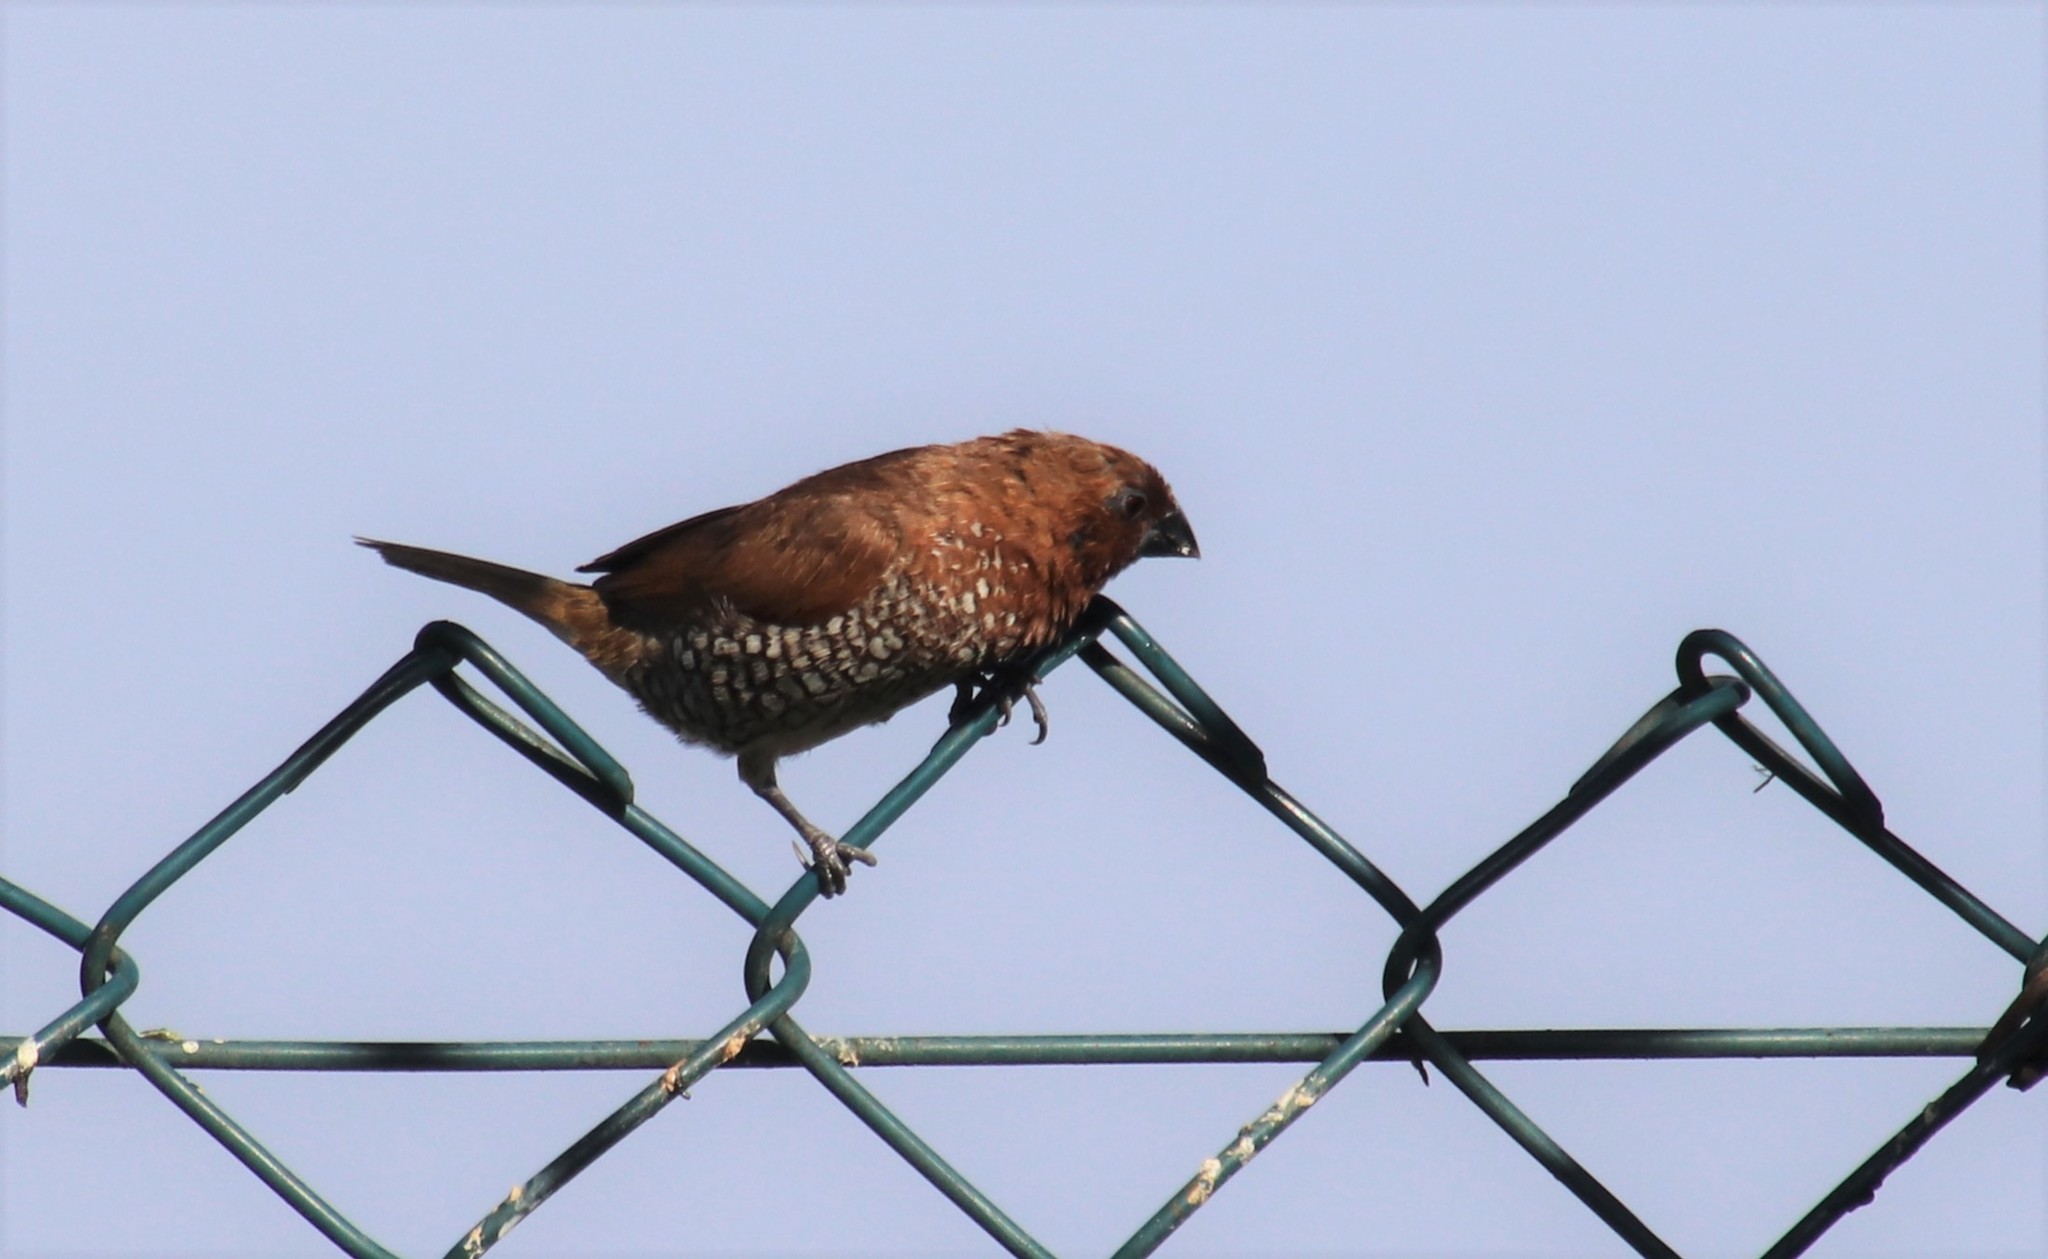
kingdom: Animalia
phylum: Chordata
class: Aves
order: Passeriformes
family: Estrildidae
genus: Lonchura
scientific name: Lonchura punctulata
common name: Scaly-breasted munia
